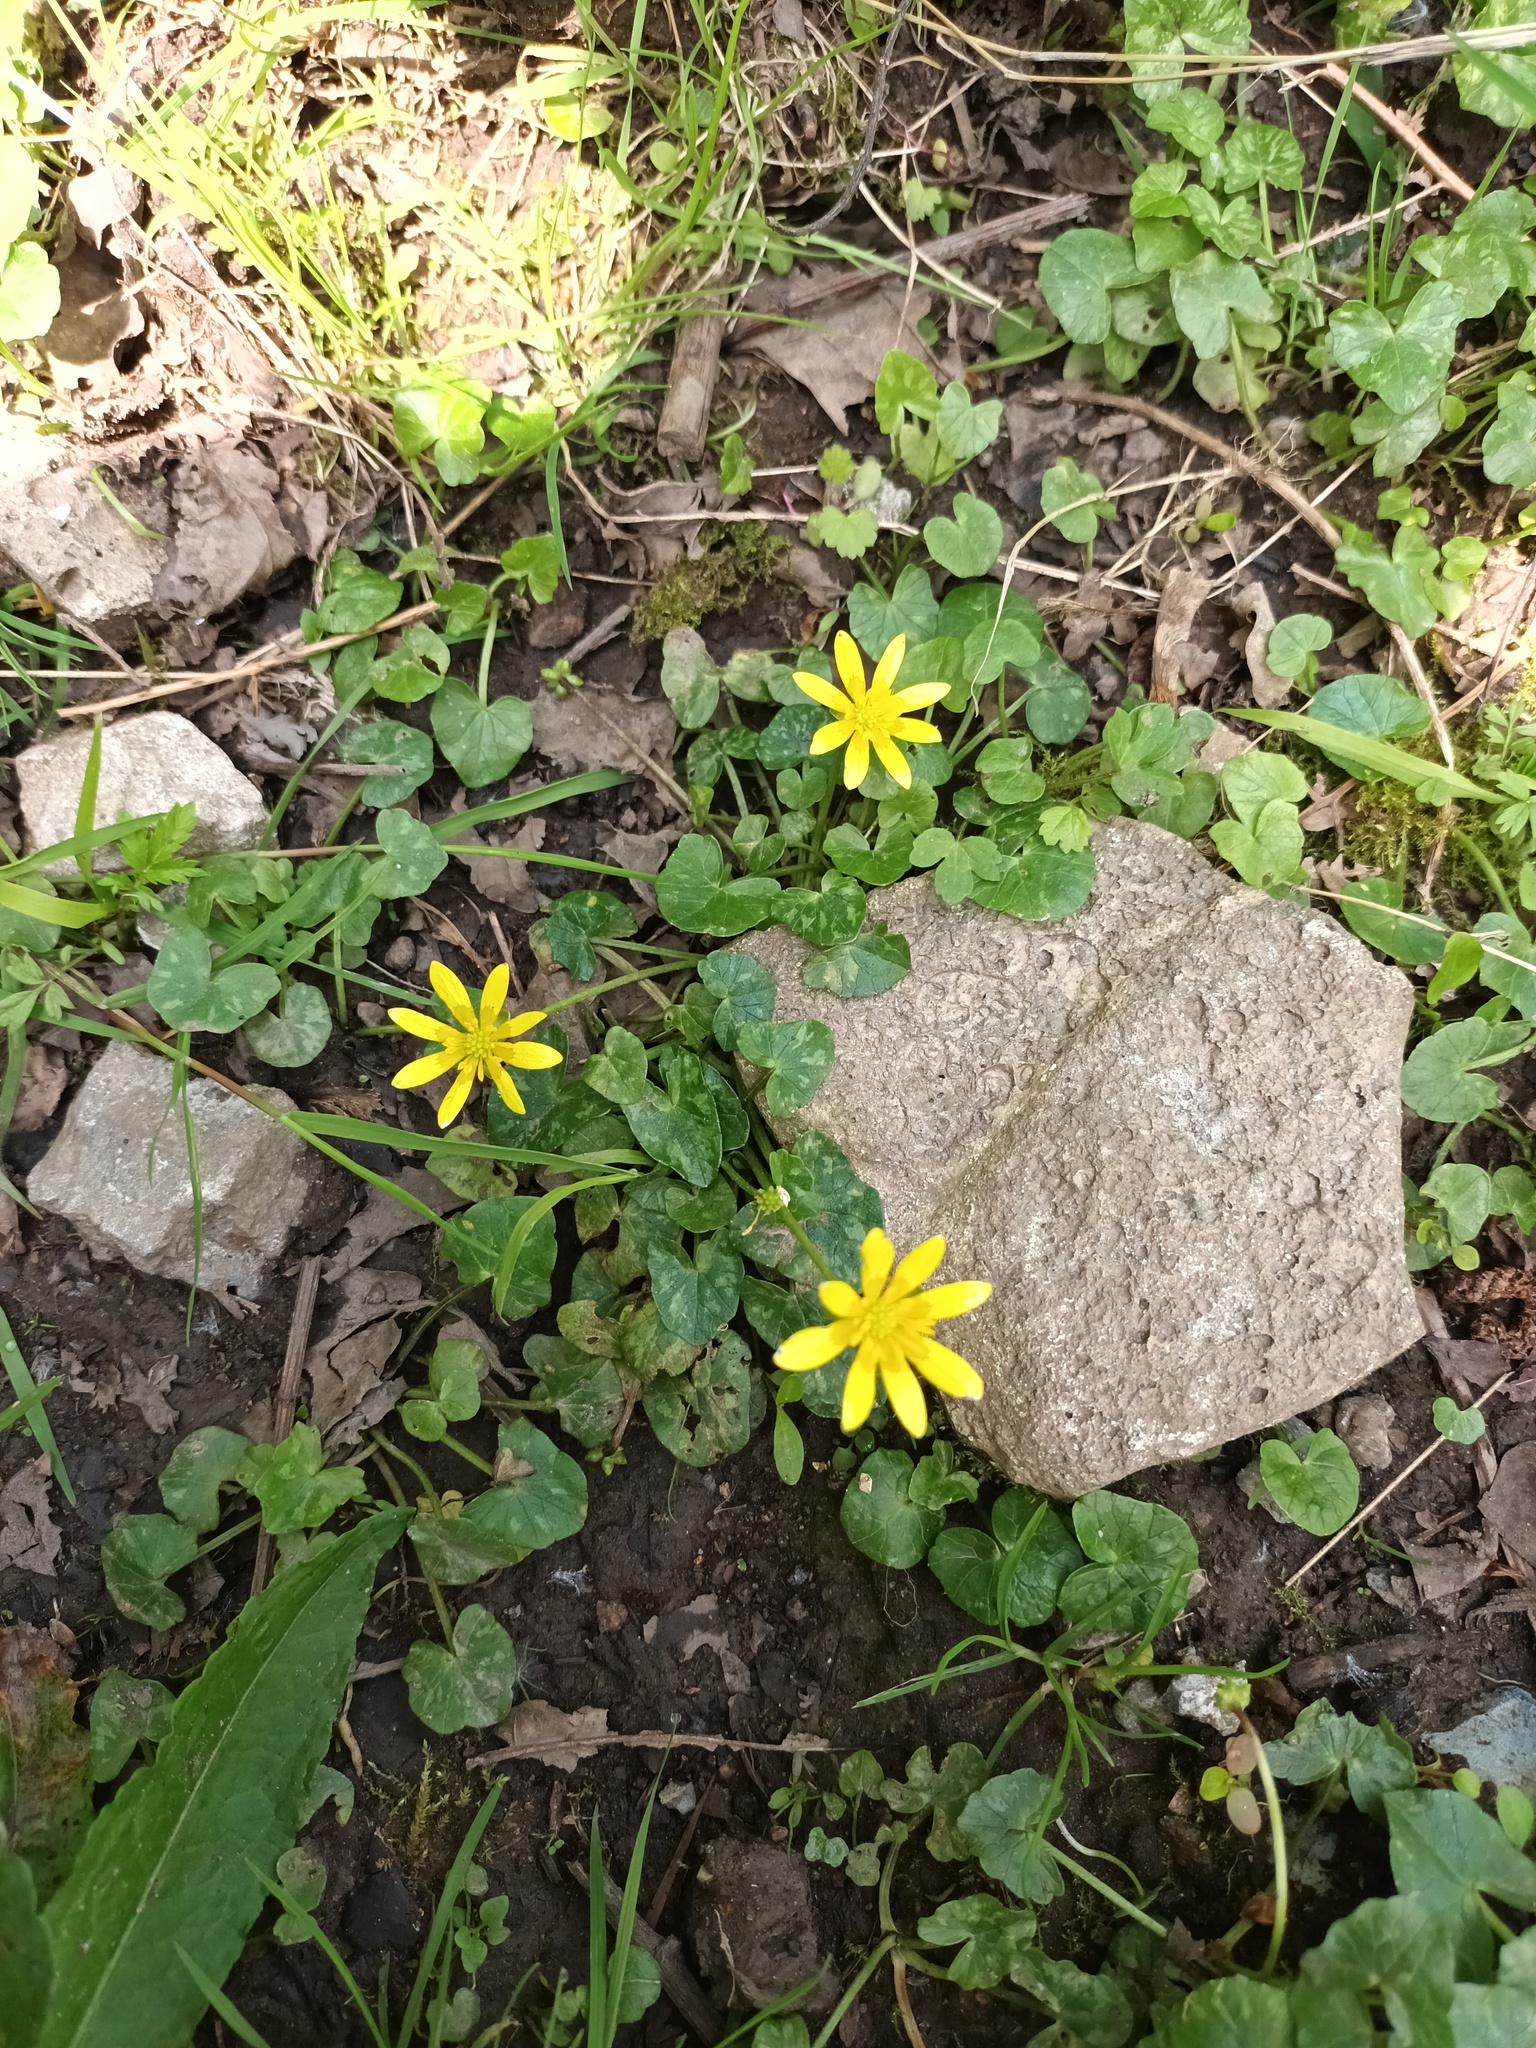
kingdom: Plantae
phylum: Tracheophyta
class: Magnoliopsida
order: Ranunculales
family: Ranunculaceae
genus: Ficaria
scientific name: Ficaria verna
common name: Lesser celandine
